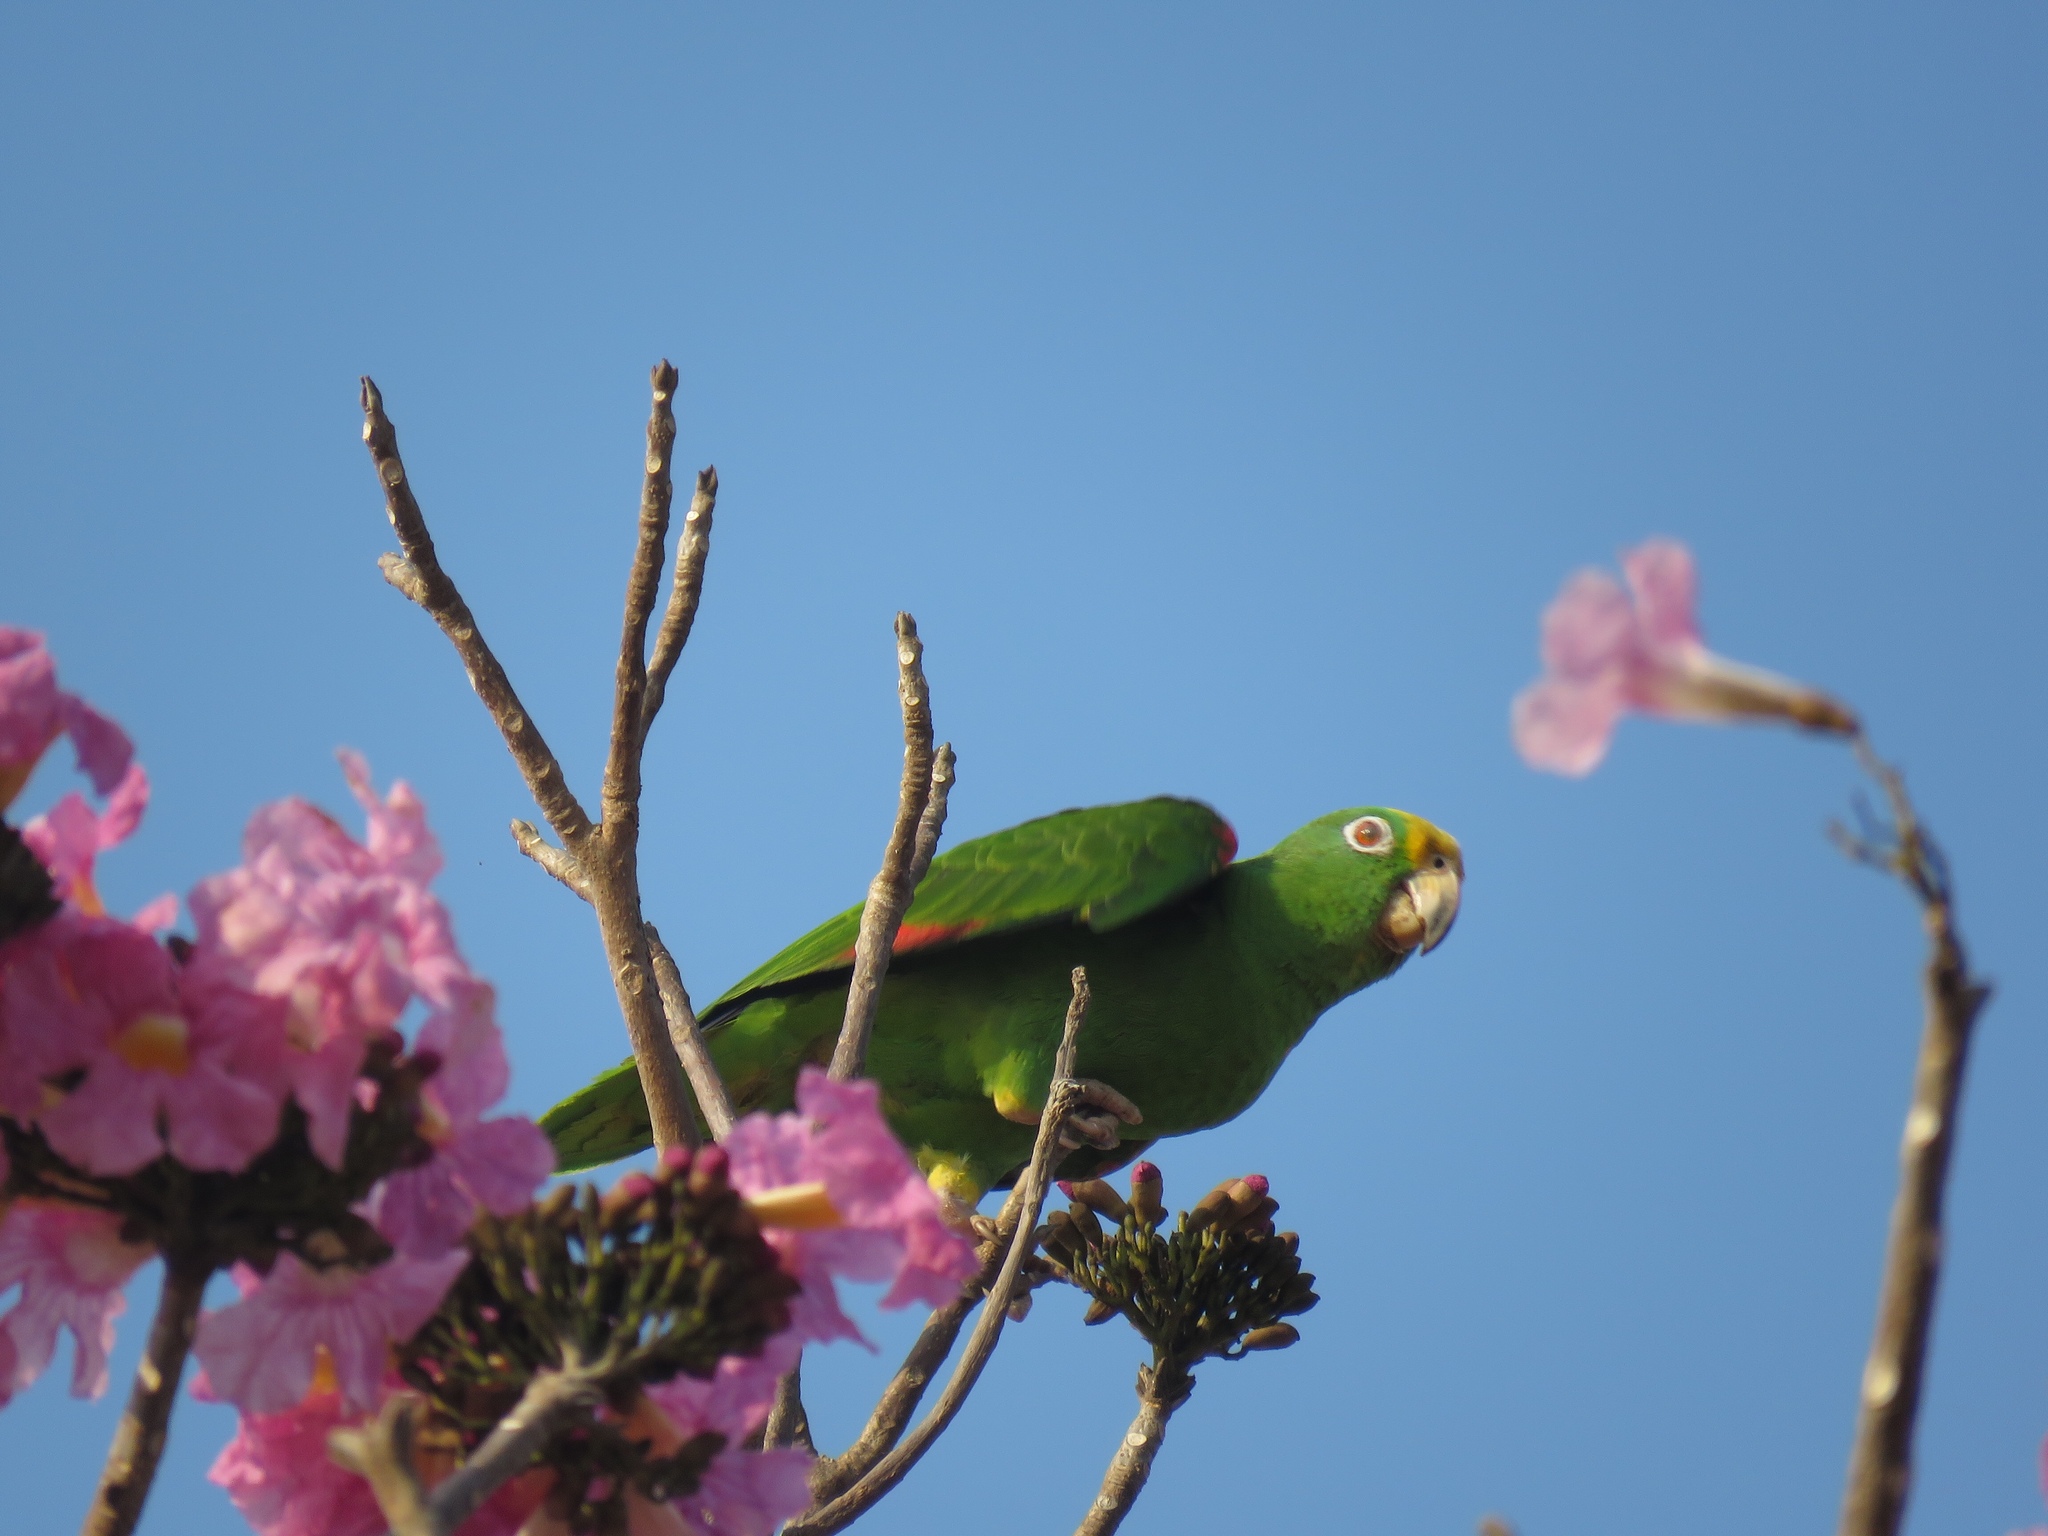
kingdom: Animalia
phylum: Chordata
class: Aves
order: Psittaciformes
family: Psittacidae
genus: Amazona
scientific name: Amazona ochrocephala
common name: Yellow-crowned amazon
